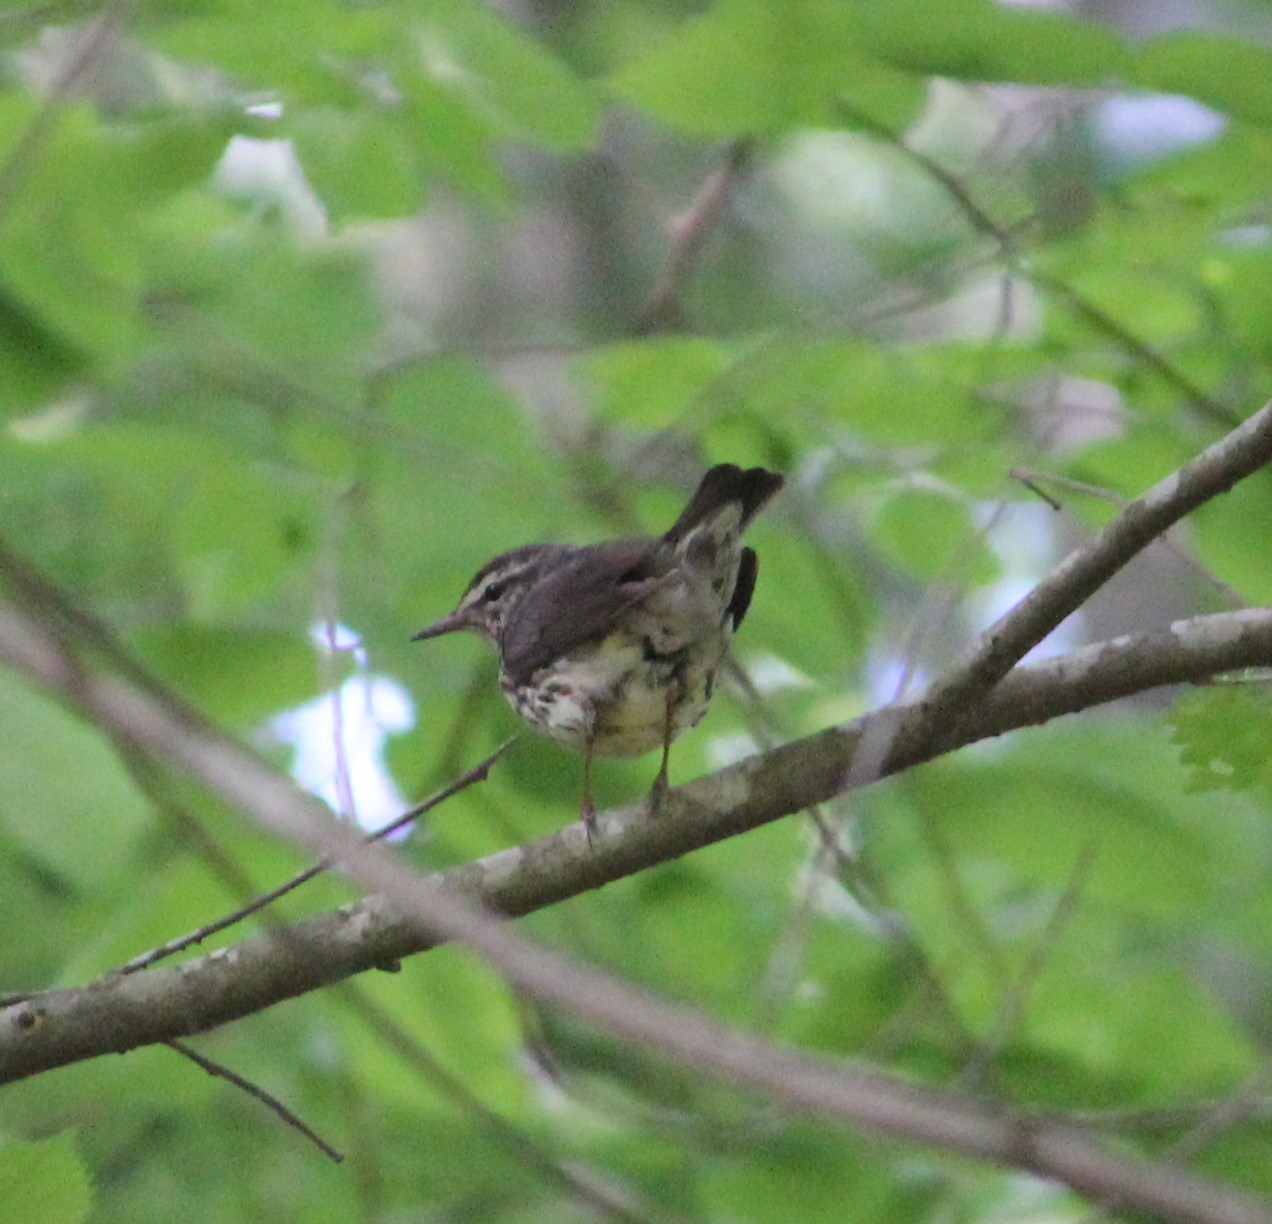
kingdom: Animalia
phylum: Chordata
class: Aves
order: Passeriformes
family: Parulidae
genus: Parkesia
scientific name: Parkesia noveboracensis
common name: Northern waterthrush
